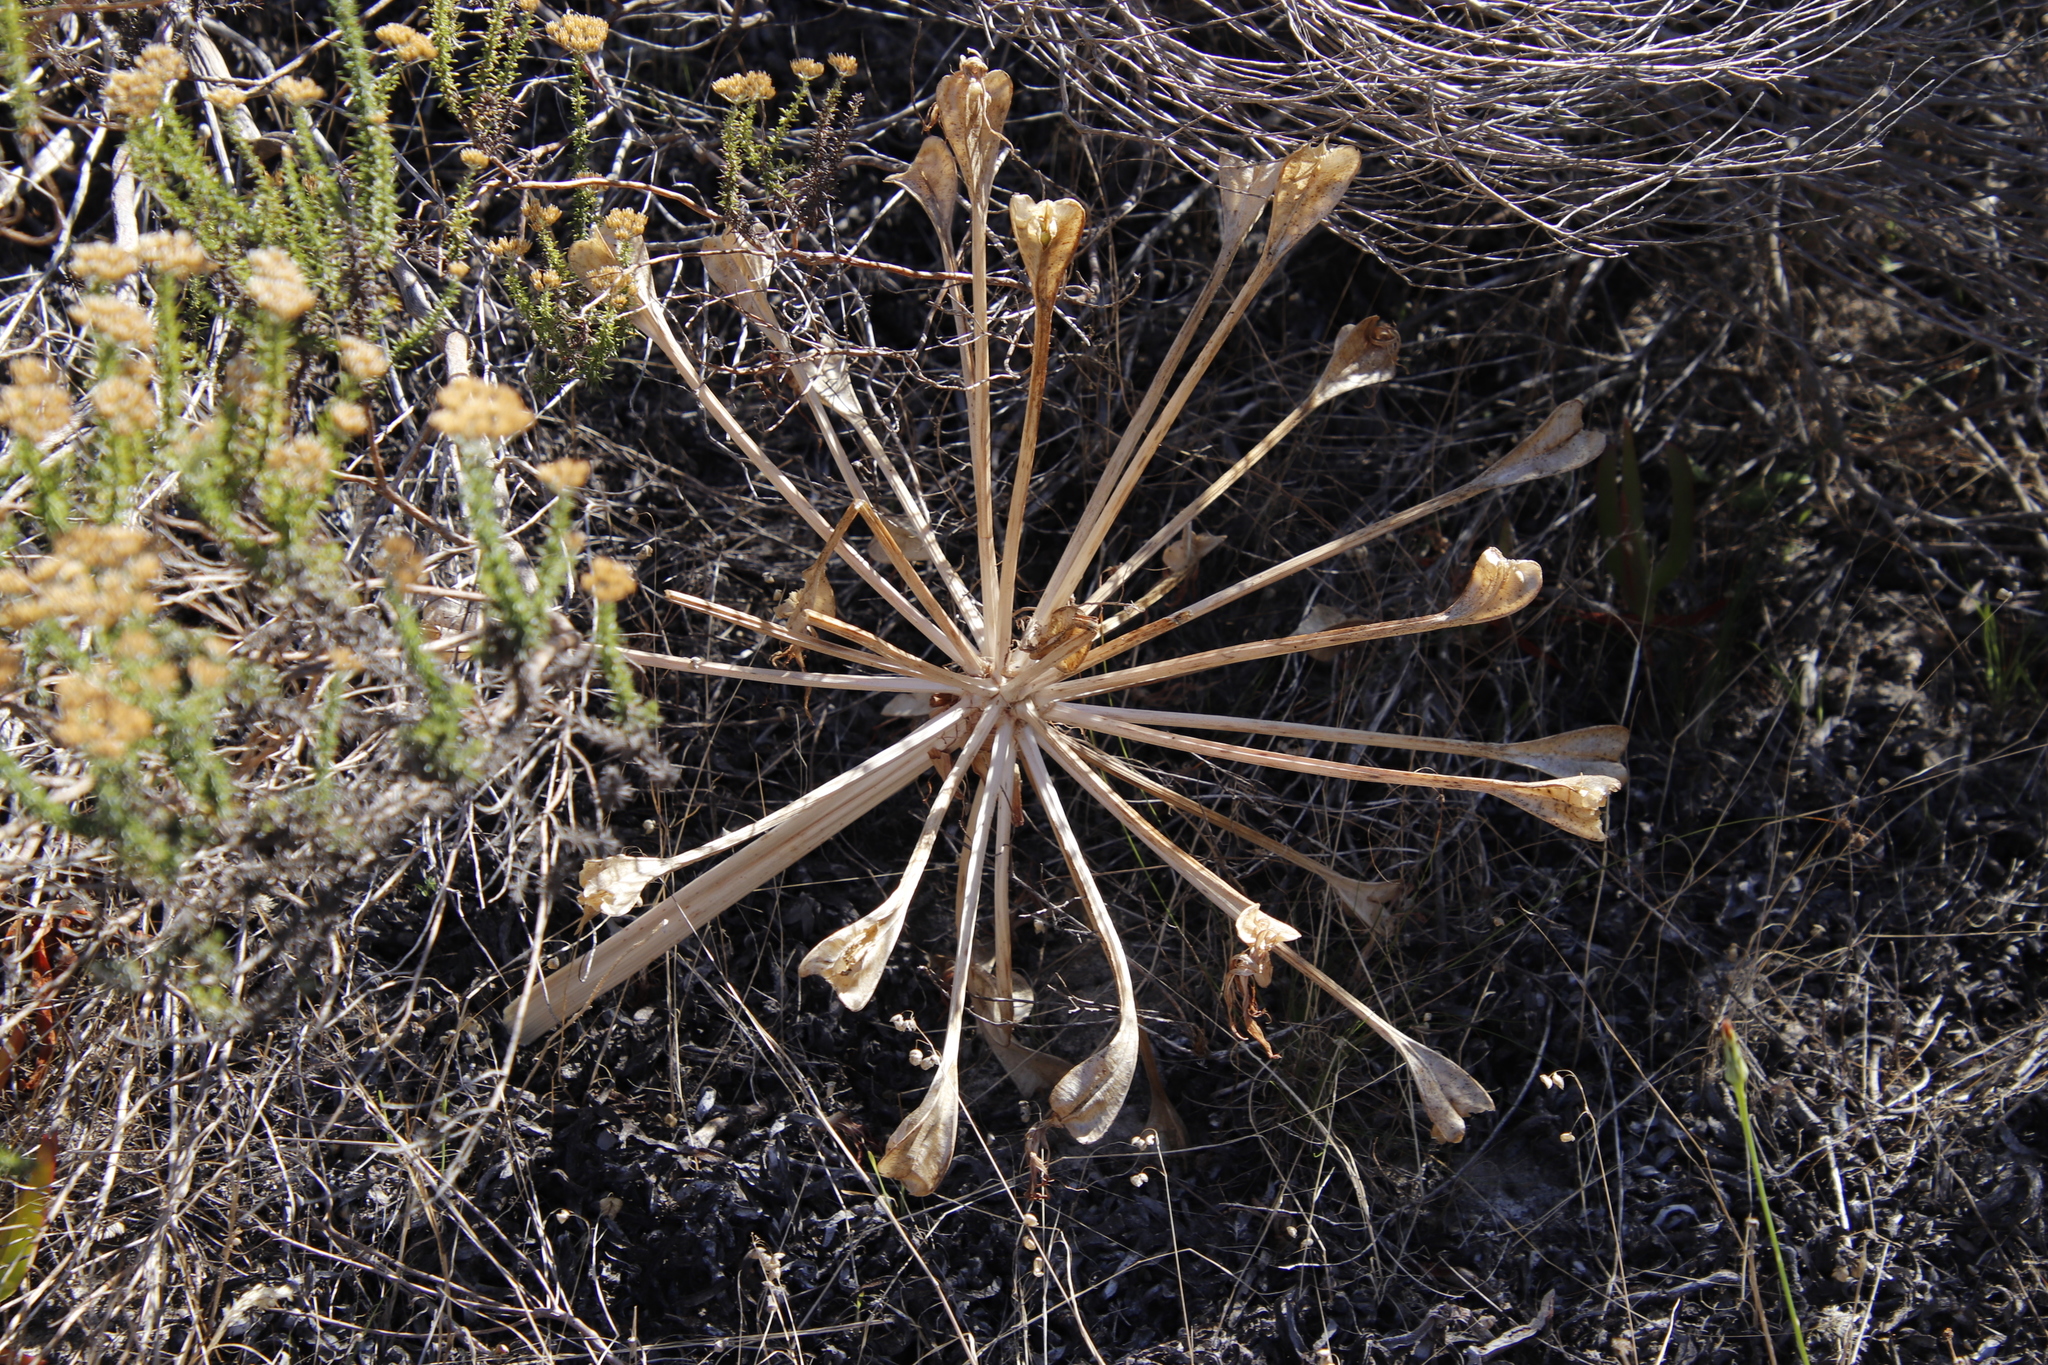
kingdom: Plantae
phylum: Tracheophyta
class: Liliopsida
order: Asparagales
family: Amaryllidaceae
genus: Brunsvigia
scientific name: Brunsvigia orientalis
